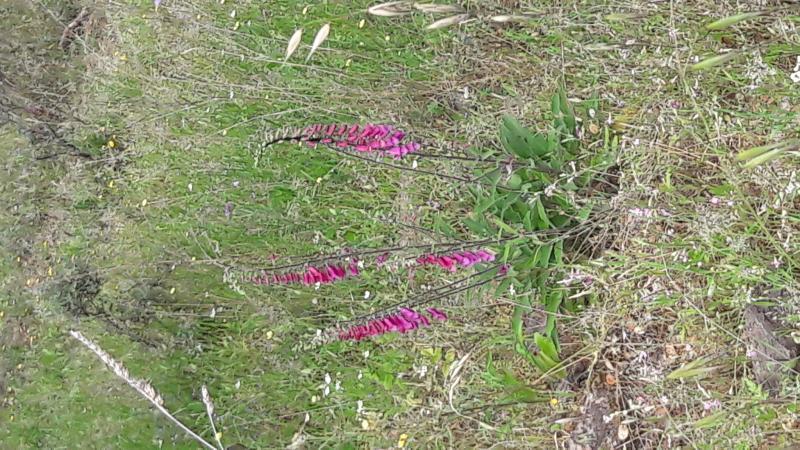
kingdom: Plantae
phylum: Tracheophyta
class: Magnoliopsida
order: Lamiales
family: Plantaginaceae
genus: Digitalis
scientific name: Digitalis purpurea
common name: Foxglove
